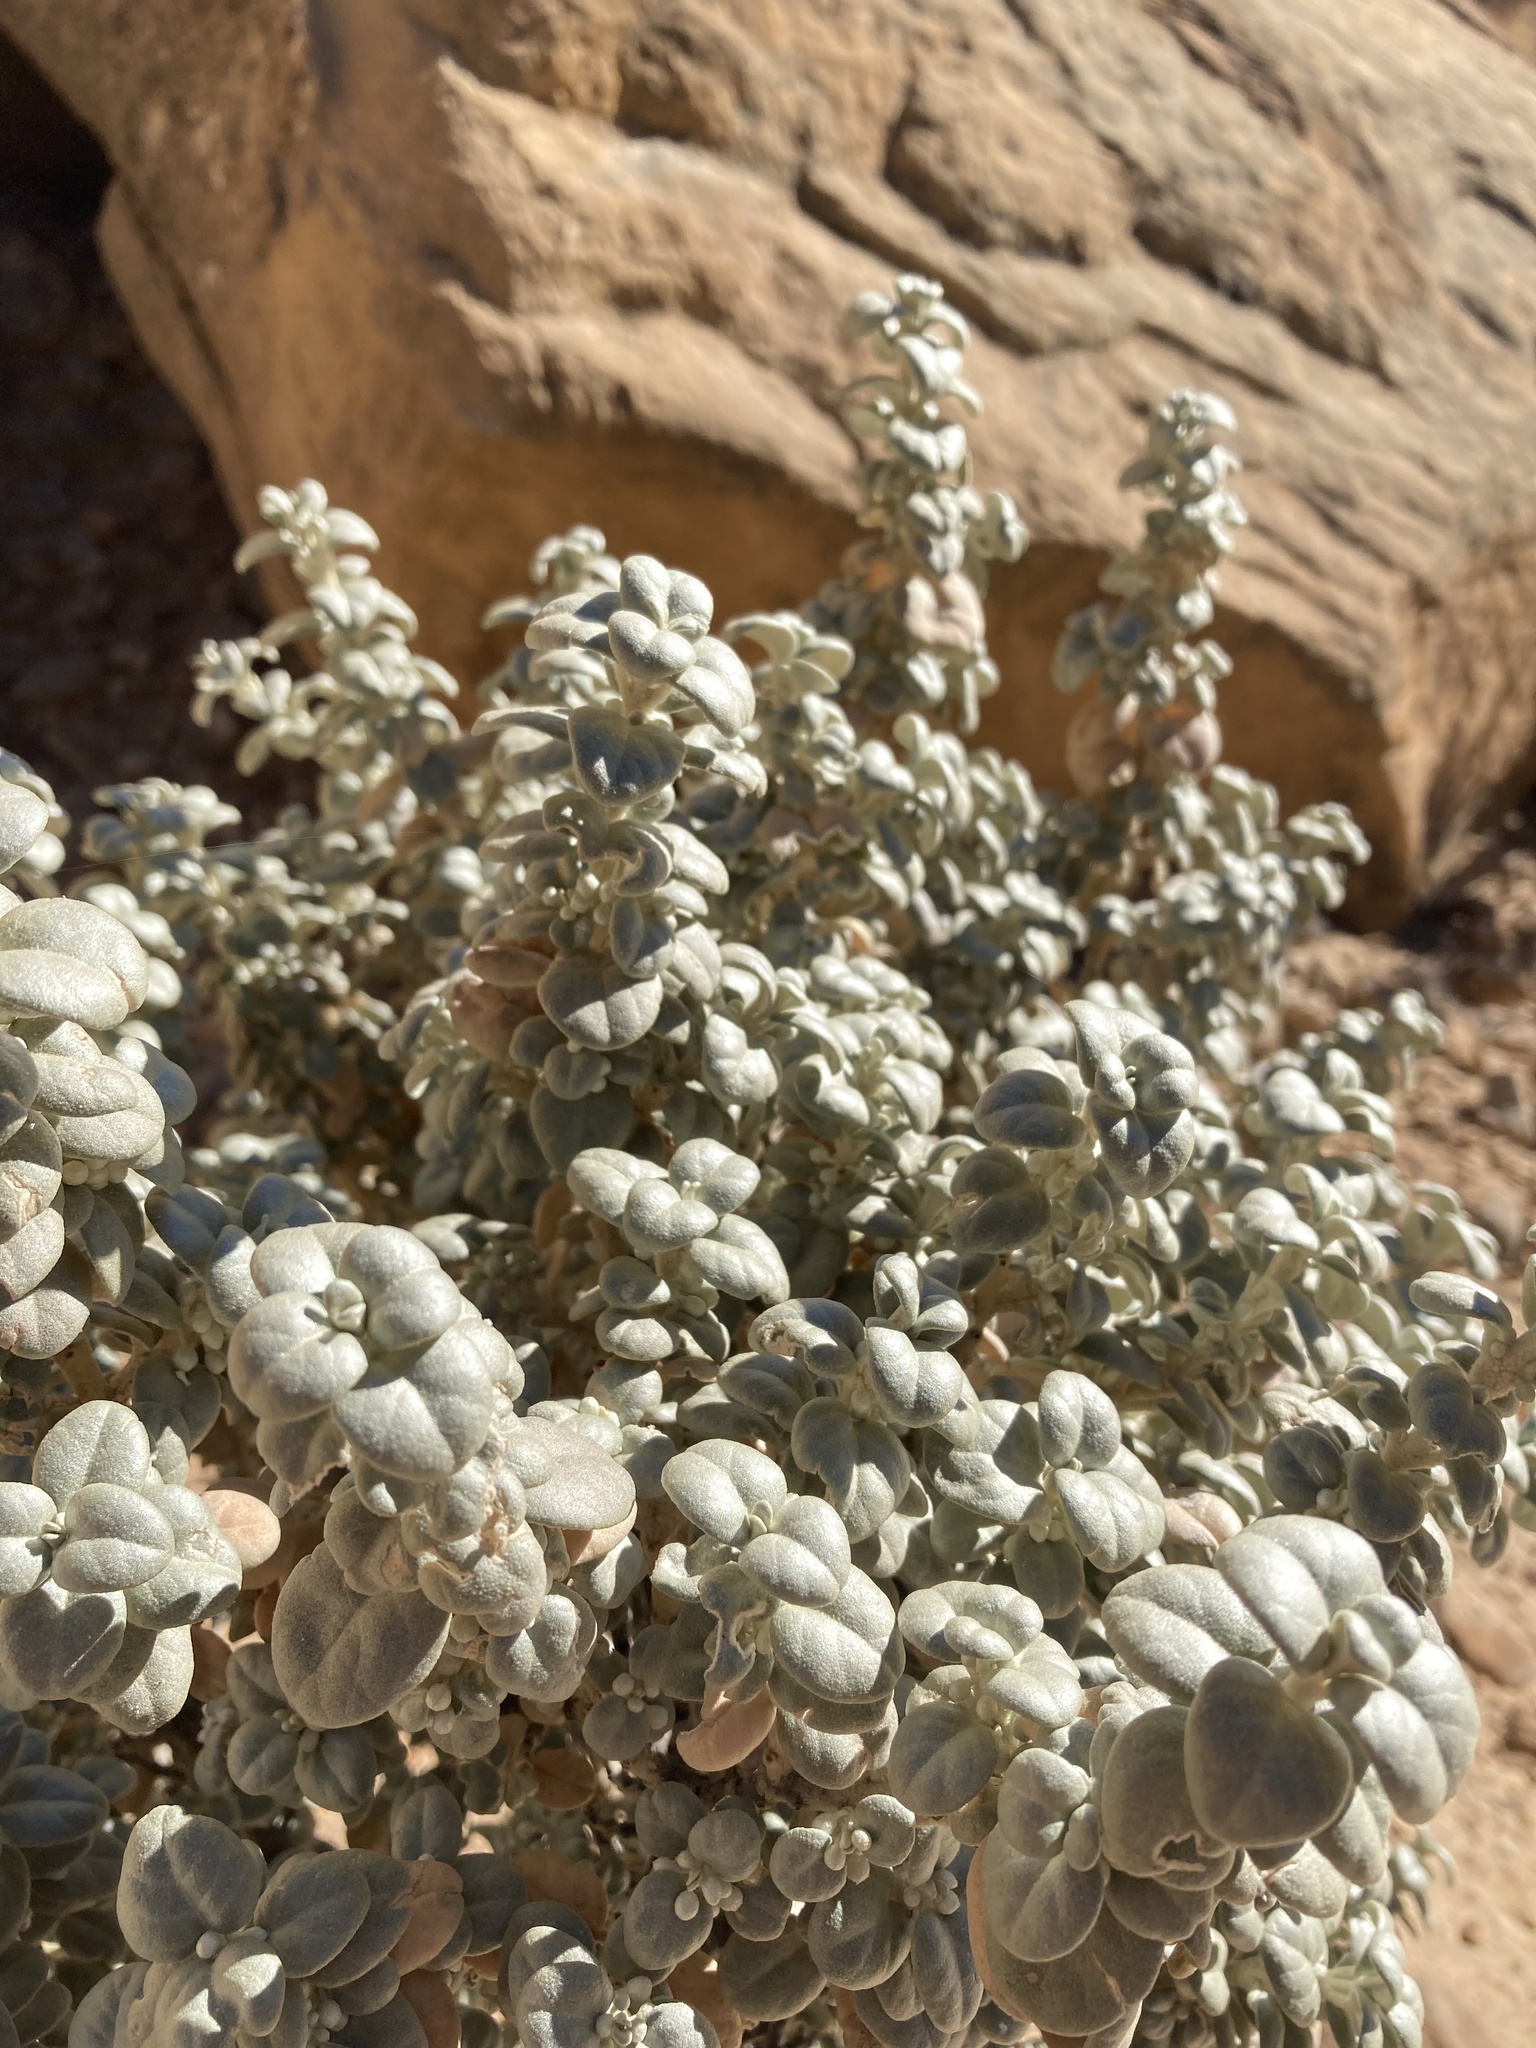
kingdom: Plantae
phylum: Tracheophyta
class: Magnoliopsida
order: Rosales
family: Elaeagnaceae
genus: Shepherdia
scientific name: Shepherdia rotundifolia
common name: Silverscale
